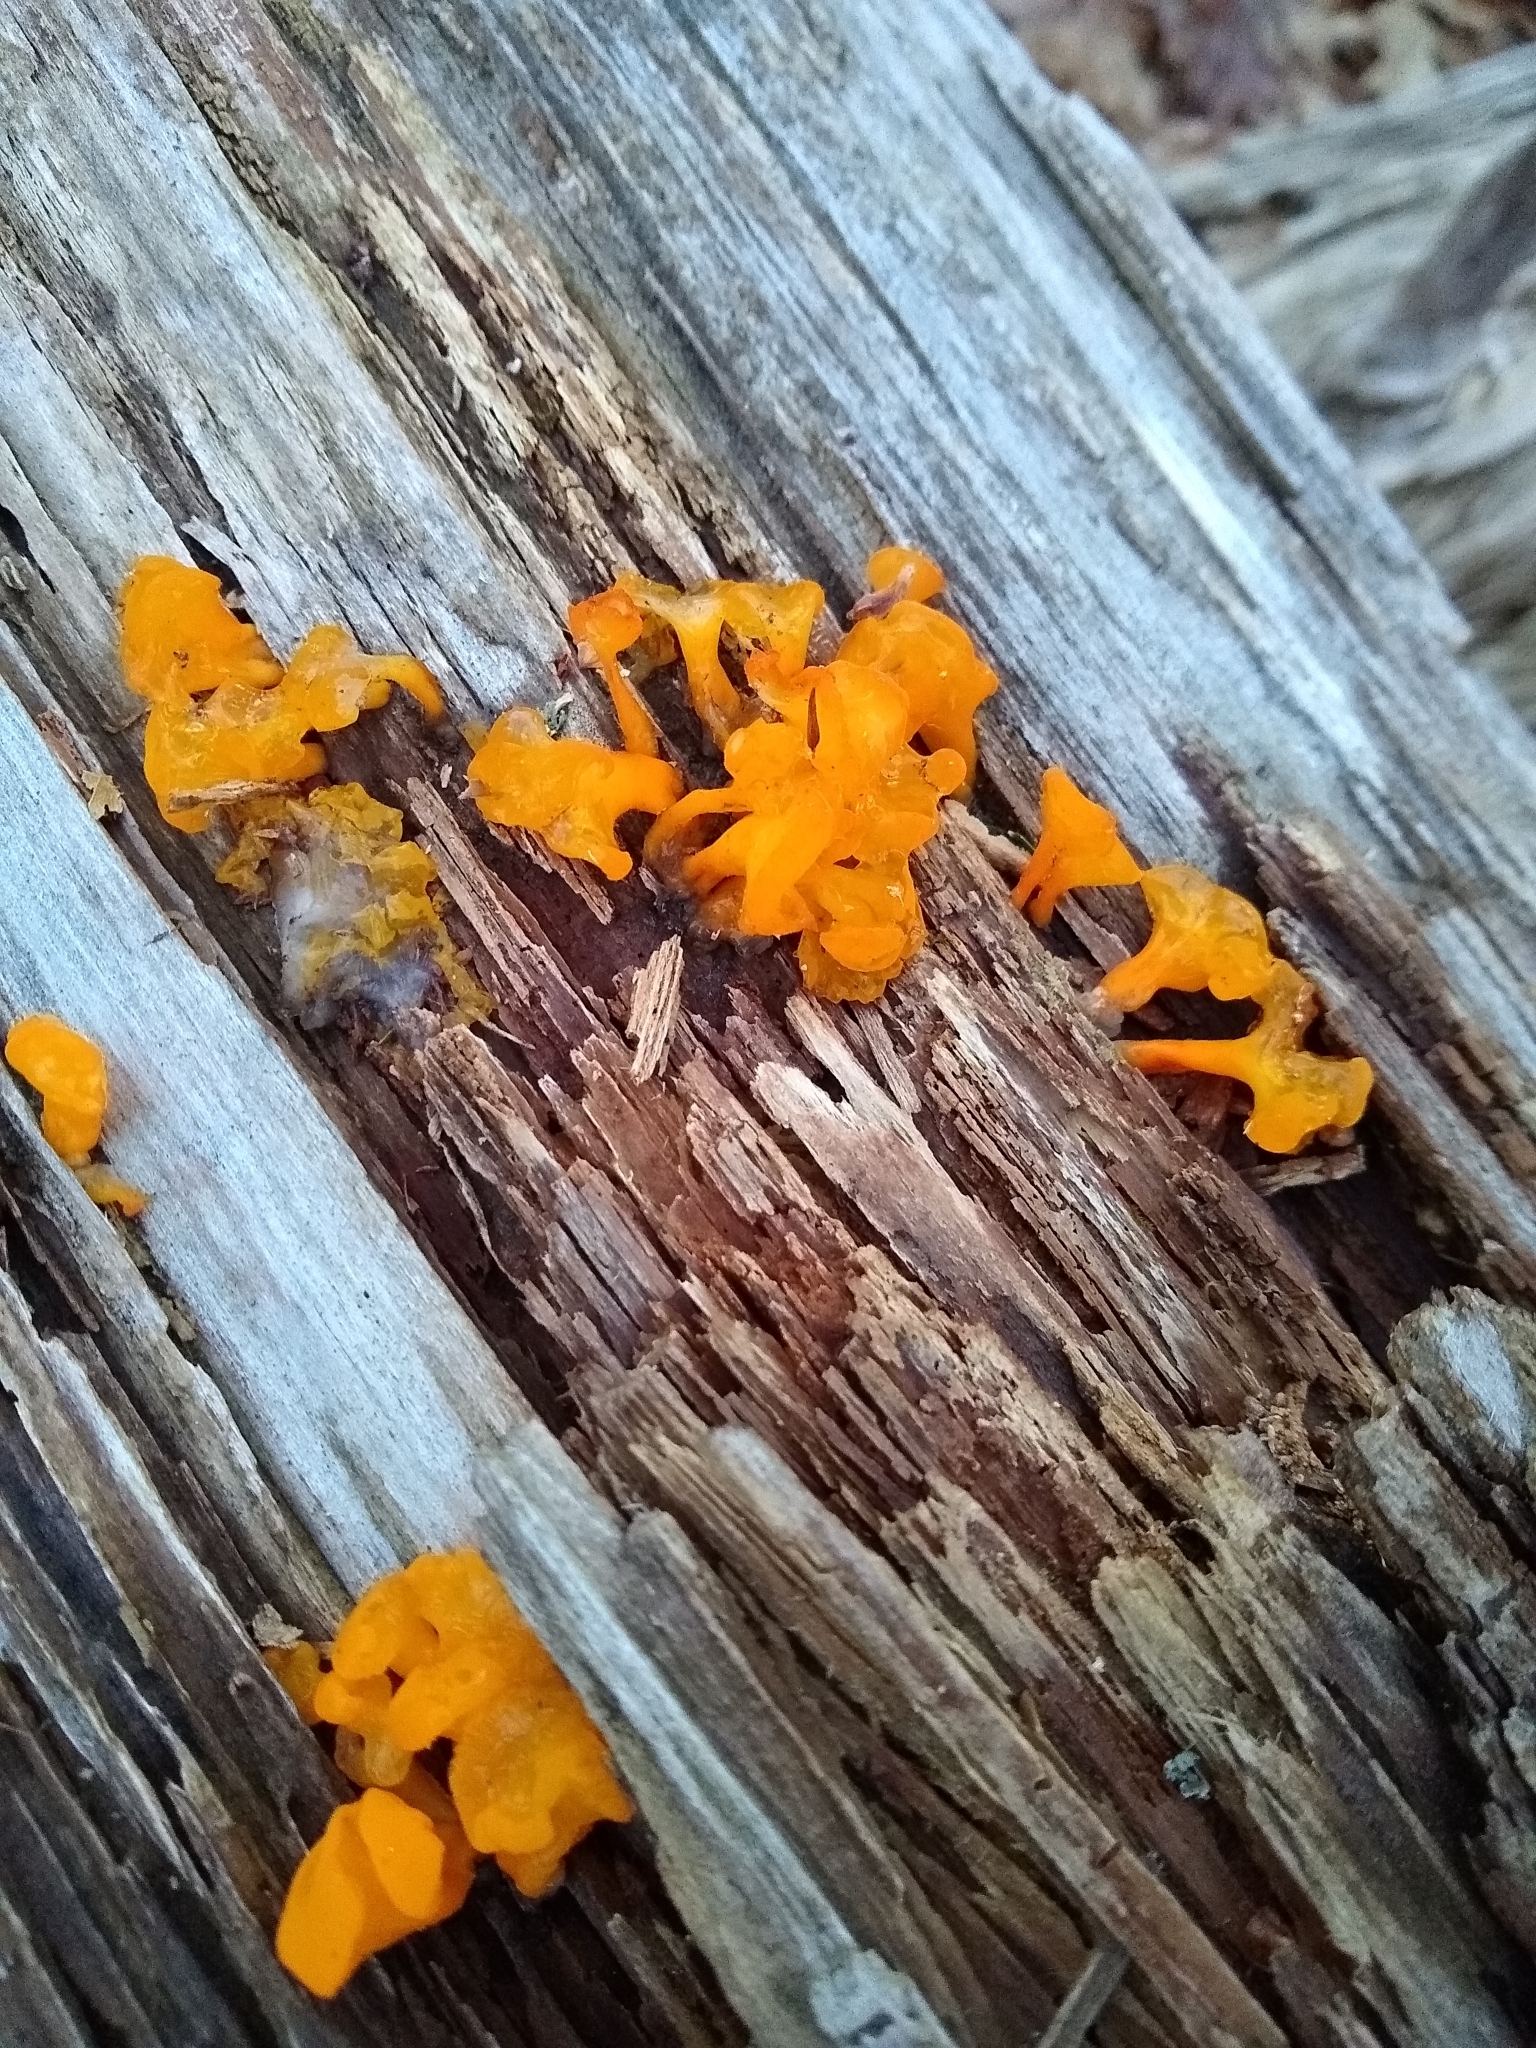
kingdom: Fungi
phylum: Basidiomycota
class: Dacrymycetes
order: Dacrymycetales
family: Dacrymycetaceae
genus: Dacrymyces
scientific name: Dacrymyces spathularius
